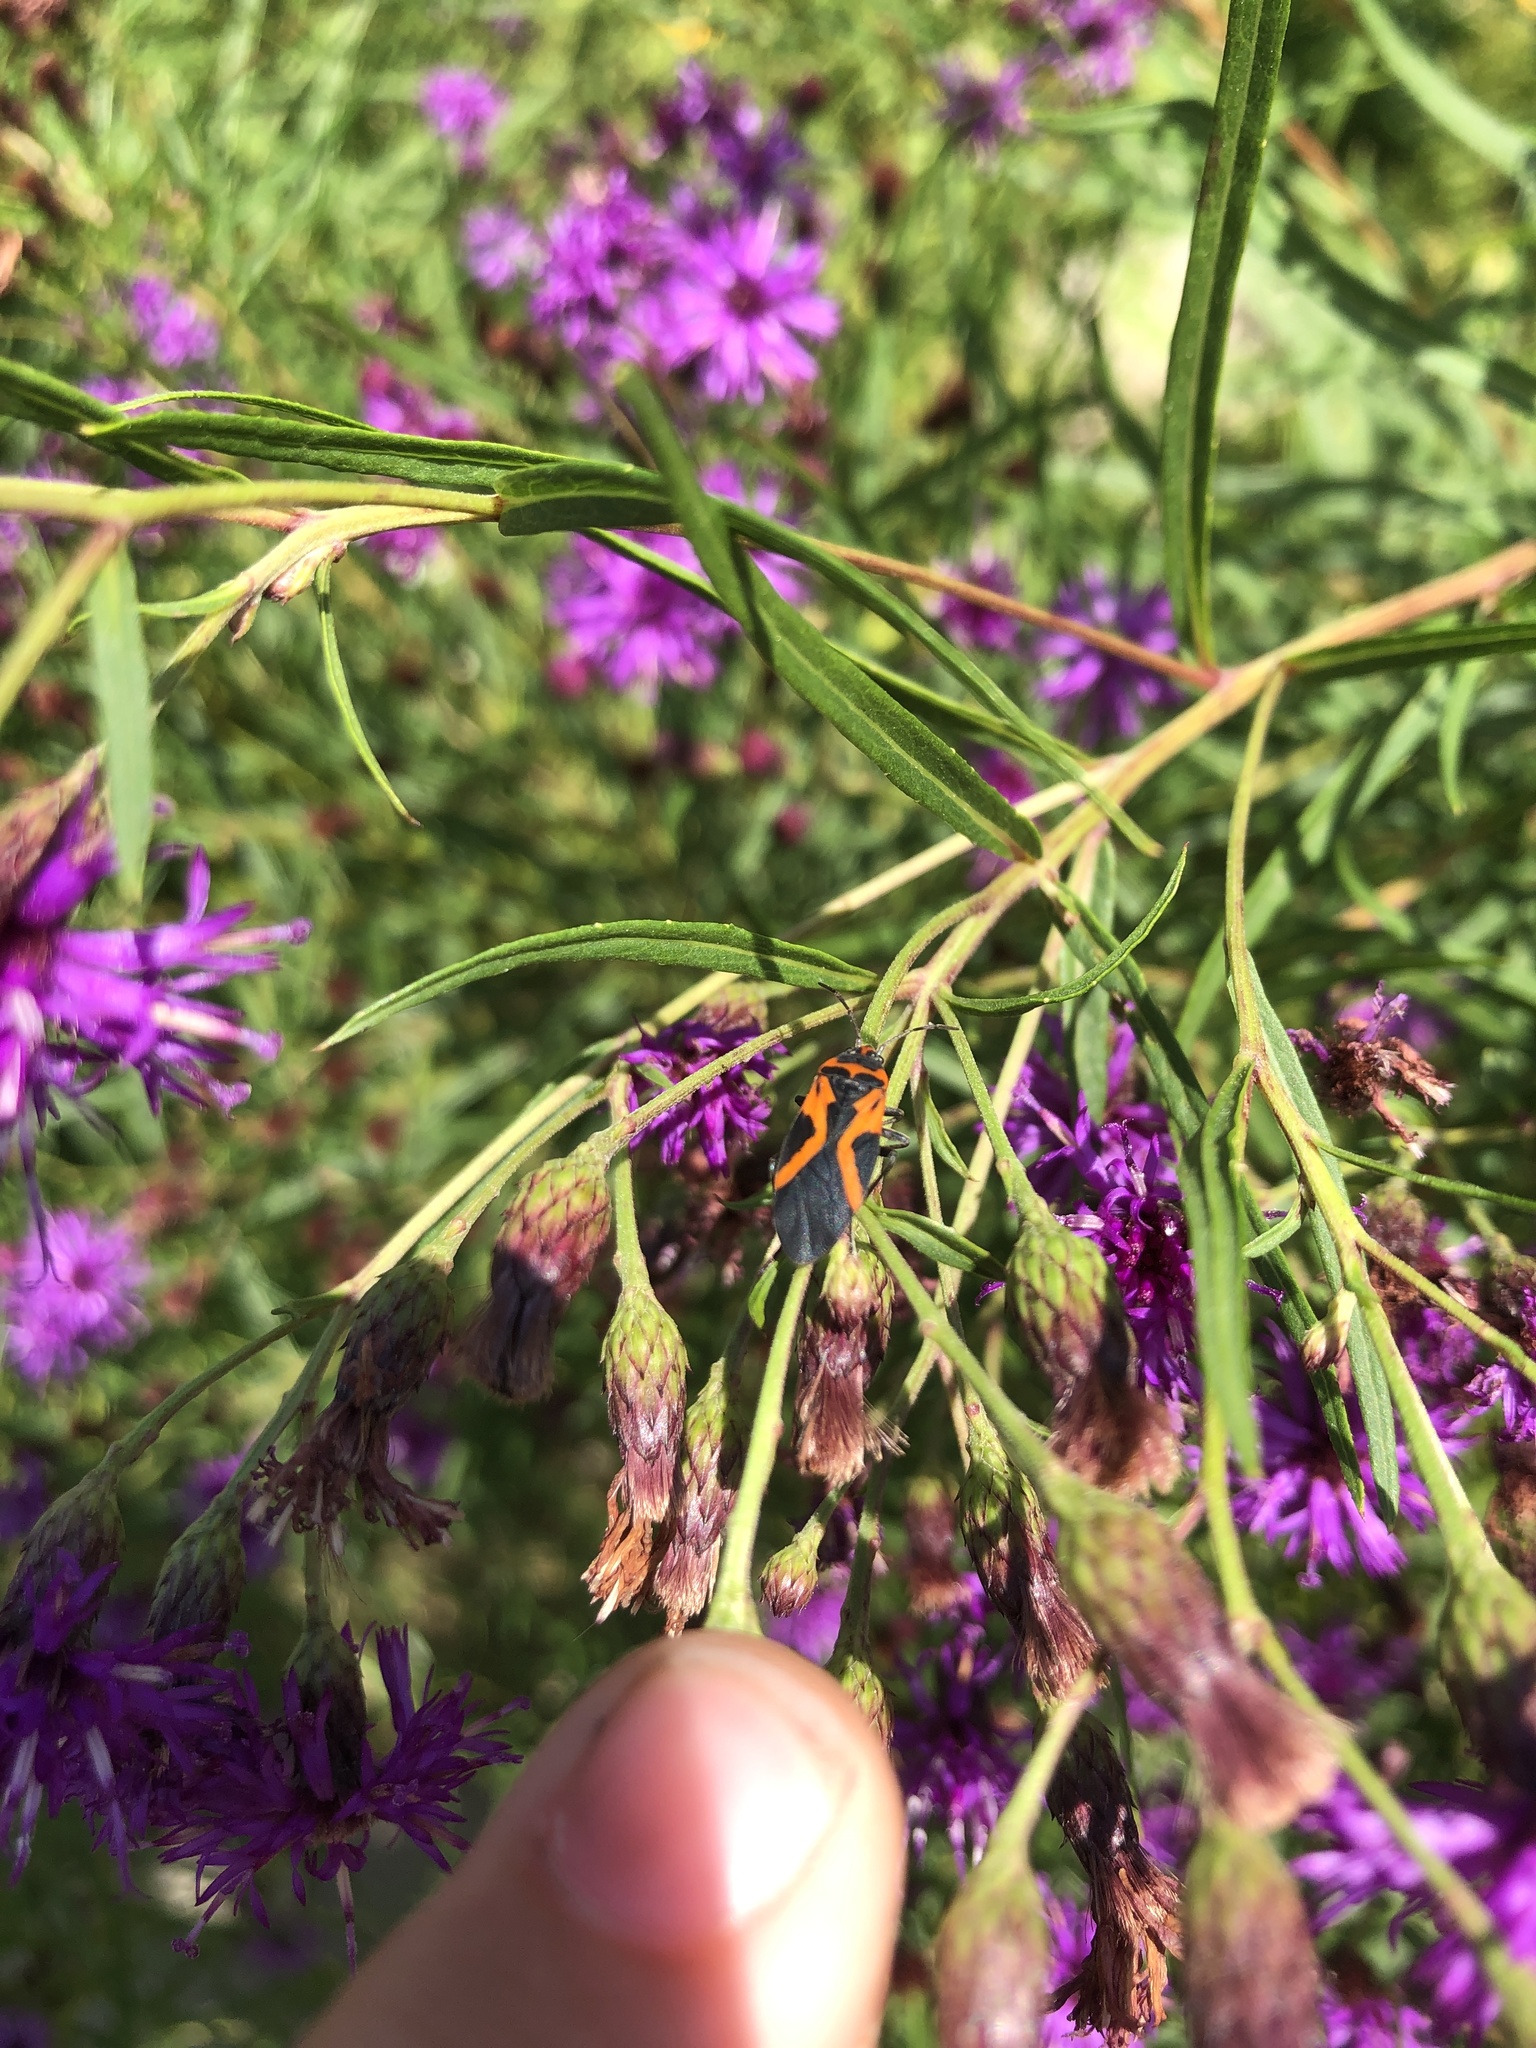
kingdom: Animalia
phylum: Arthropoda
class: Insecta
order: Hemiptera
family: Lygaeidae
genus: Lygaeus
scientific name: Lygaeus turcicus
